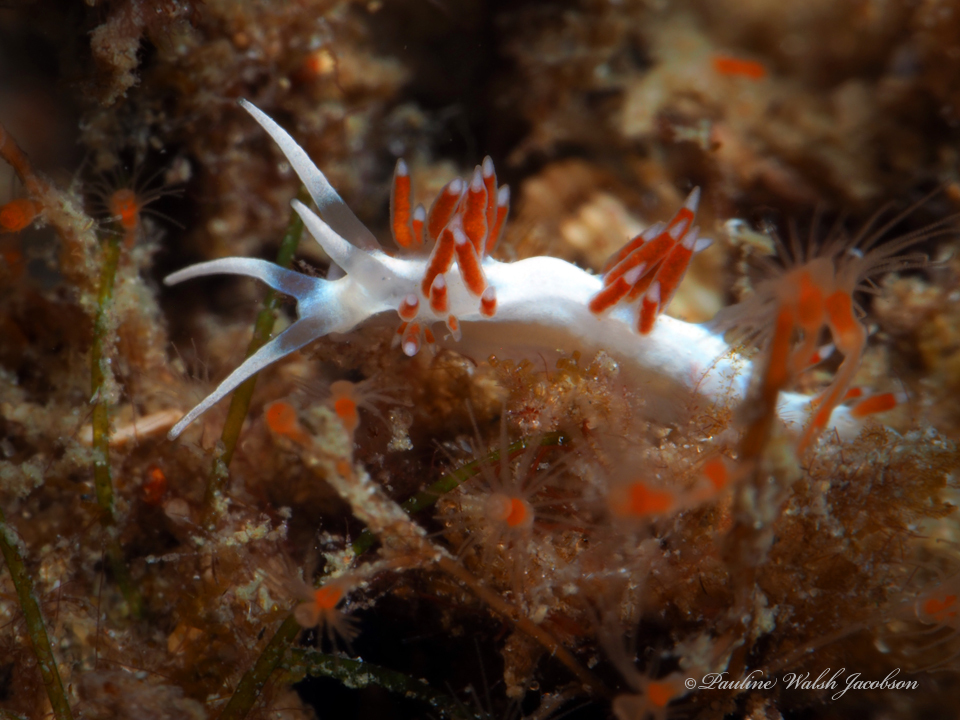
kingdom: Animalia
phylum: Mollusca
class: Gastropoda
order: Nudibranchia
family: Flabellinidae
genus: Flabellina
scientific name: Flabellina dushia
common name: Dushia flabellina
